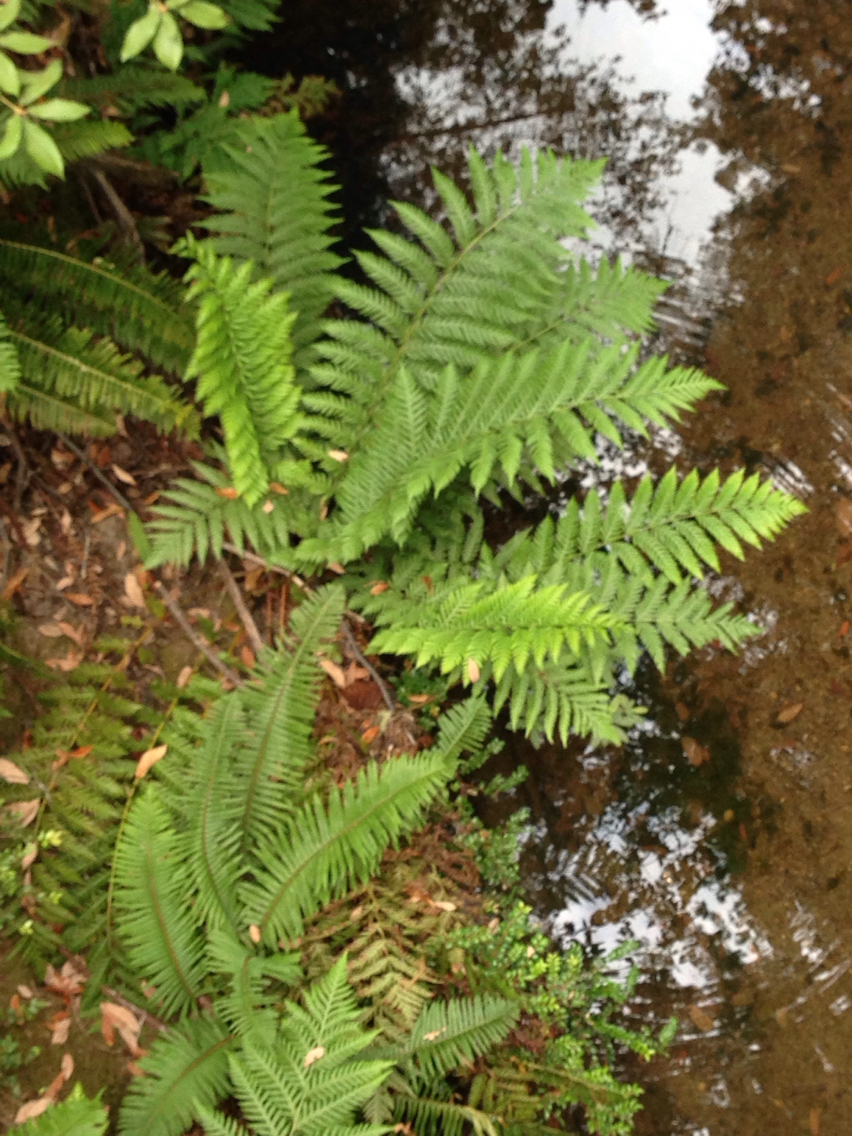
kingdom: Plantae
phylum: Tracheophyta
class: Polypodiopsida
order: Polypodiales
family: Blechnaceae
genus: Woodwardia
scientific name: Woodwardia fimbriata
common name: Giant chain fern
